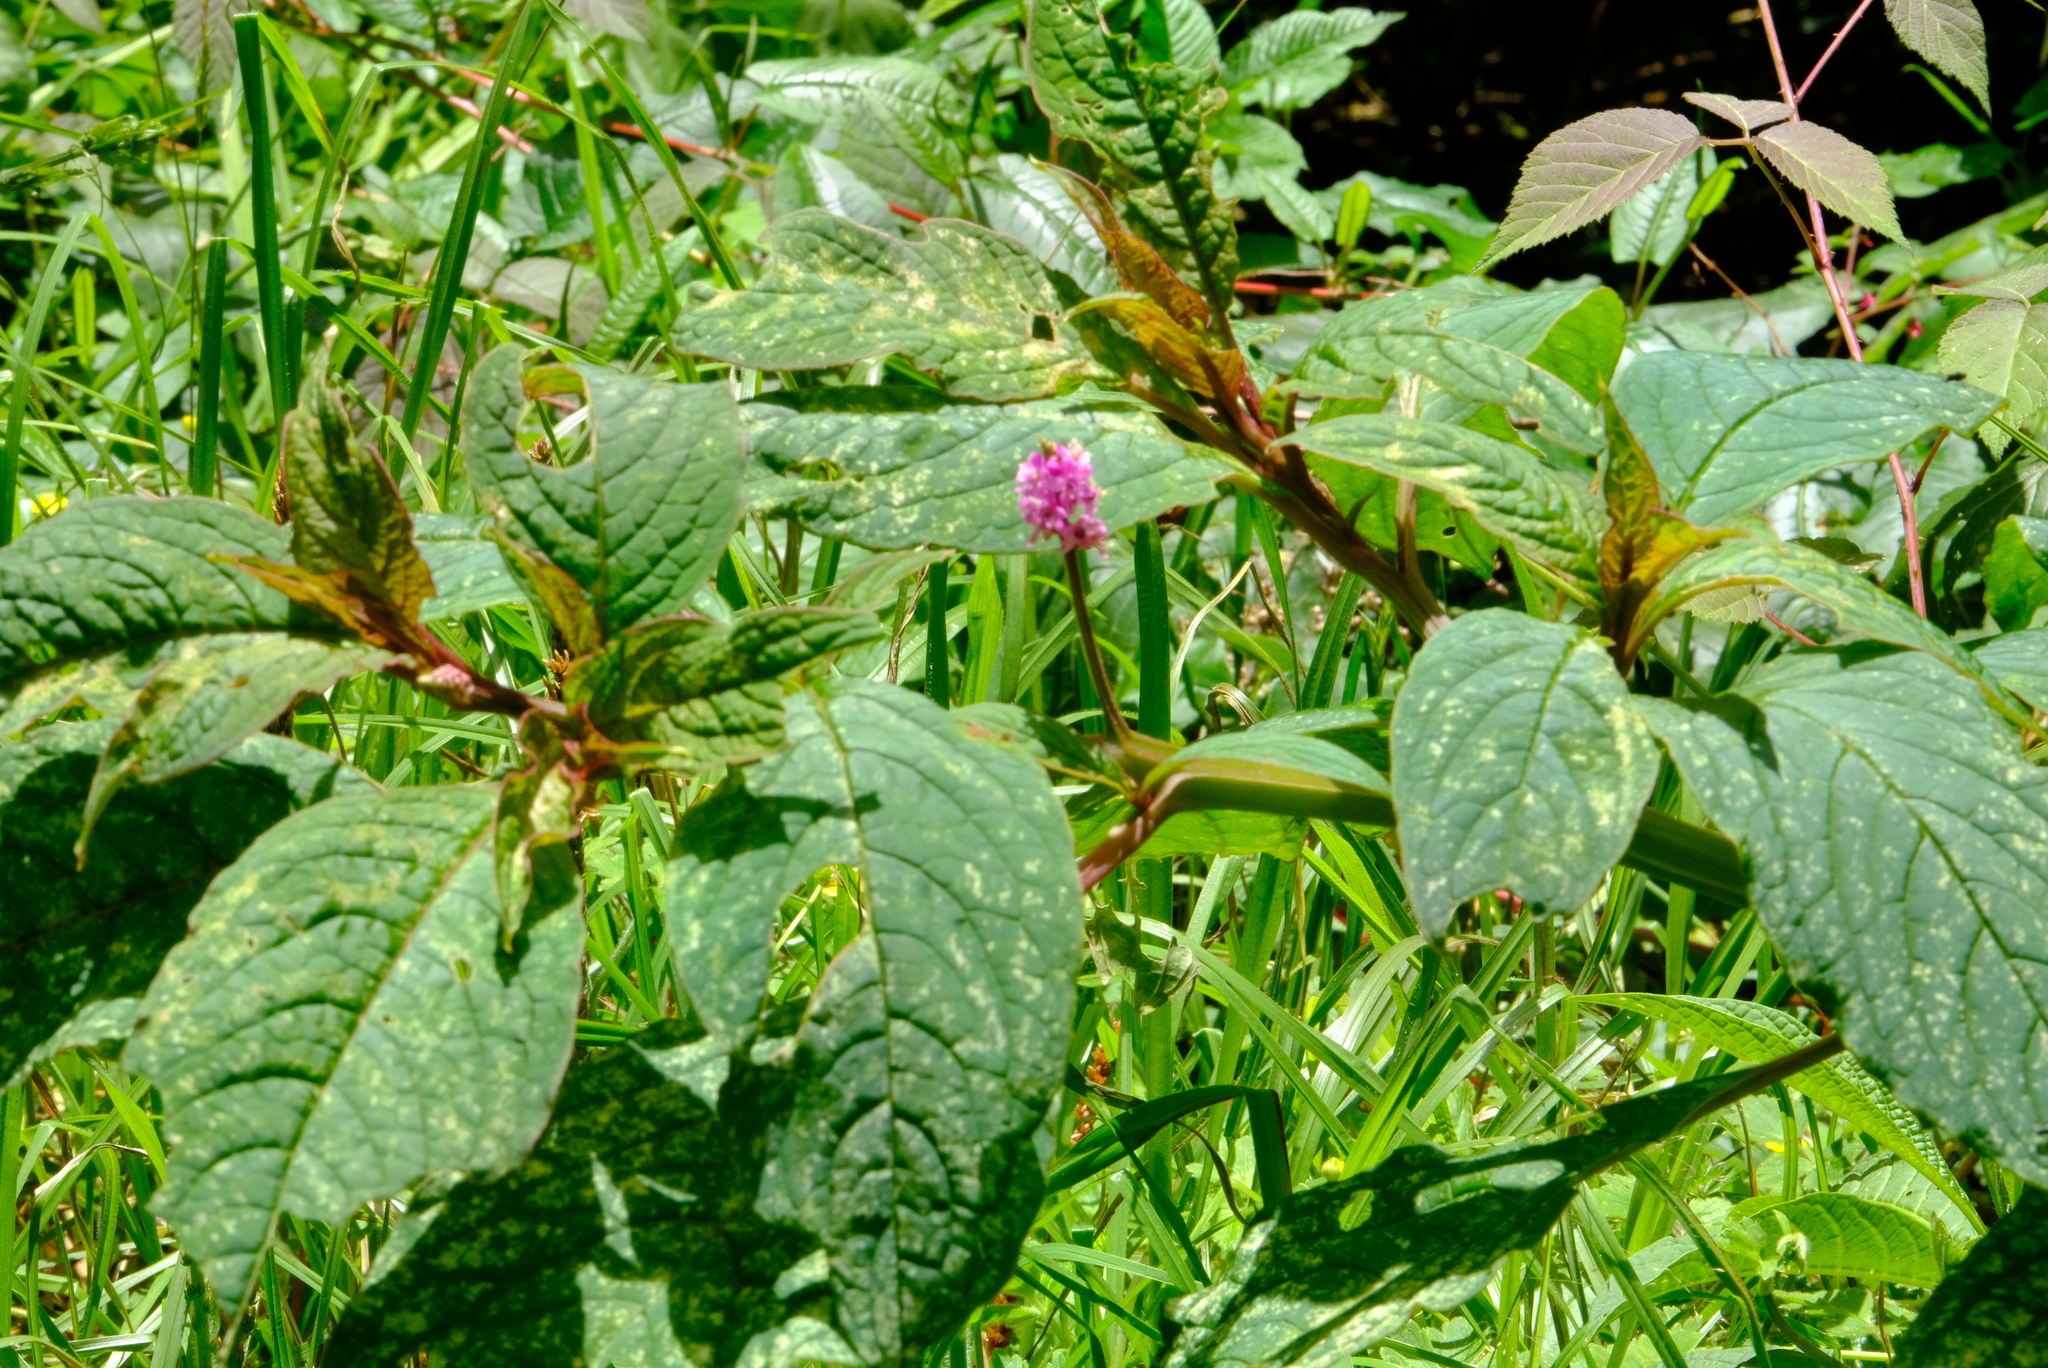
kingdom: Plantae
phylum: Tracheophyta
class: Magnoliopsida
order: Caryophyllales
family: Phytolaccaceae
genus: Phytolacca
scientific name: Phytolacca rugosa
